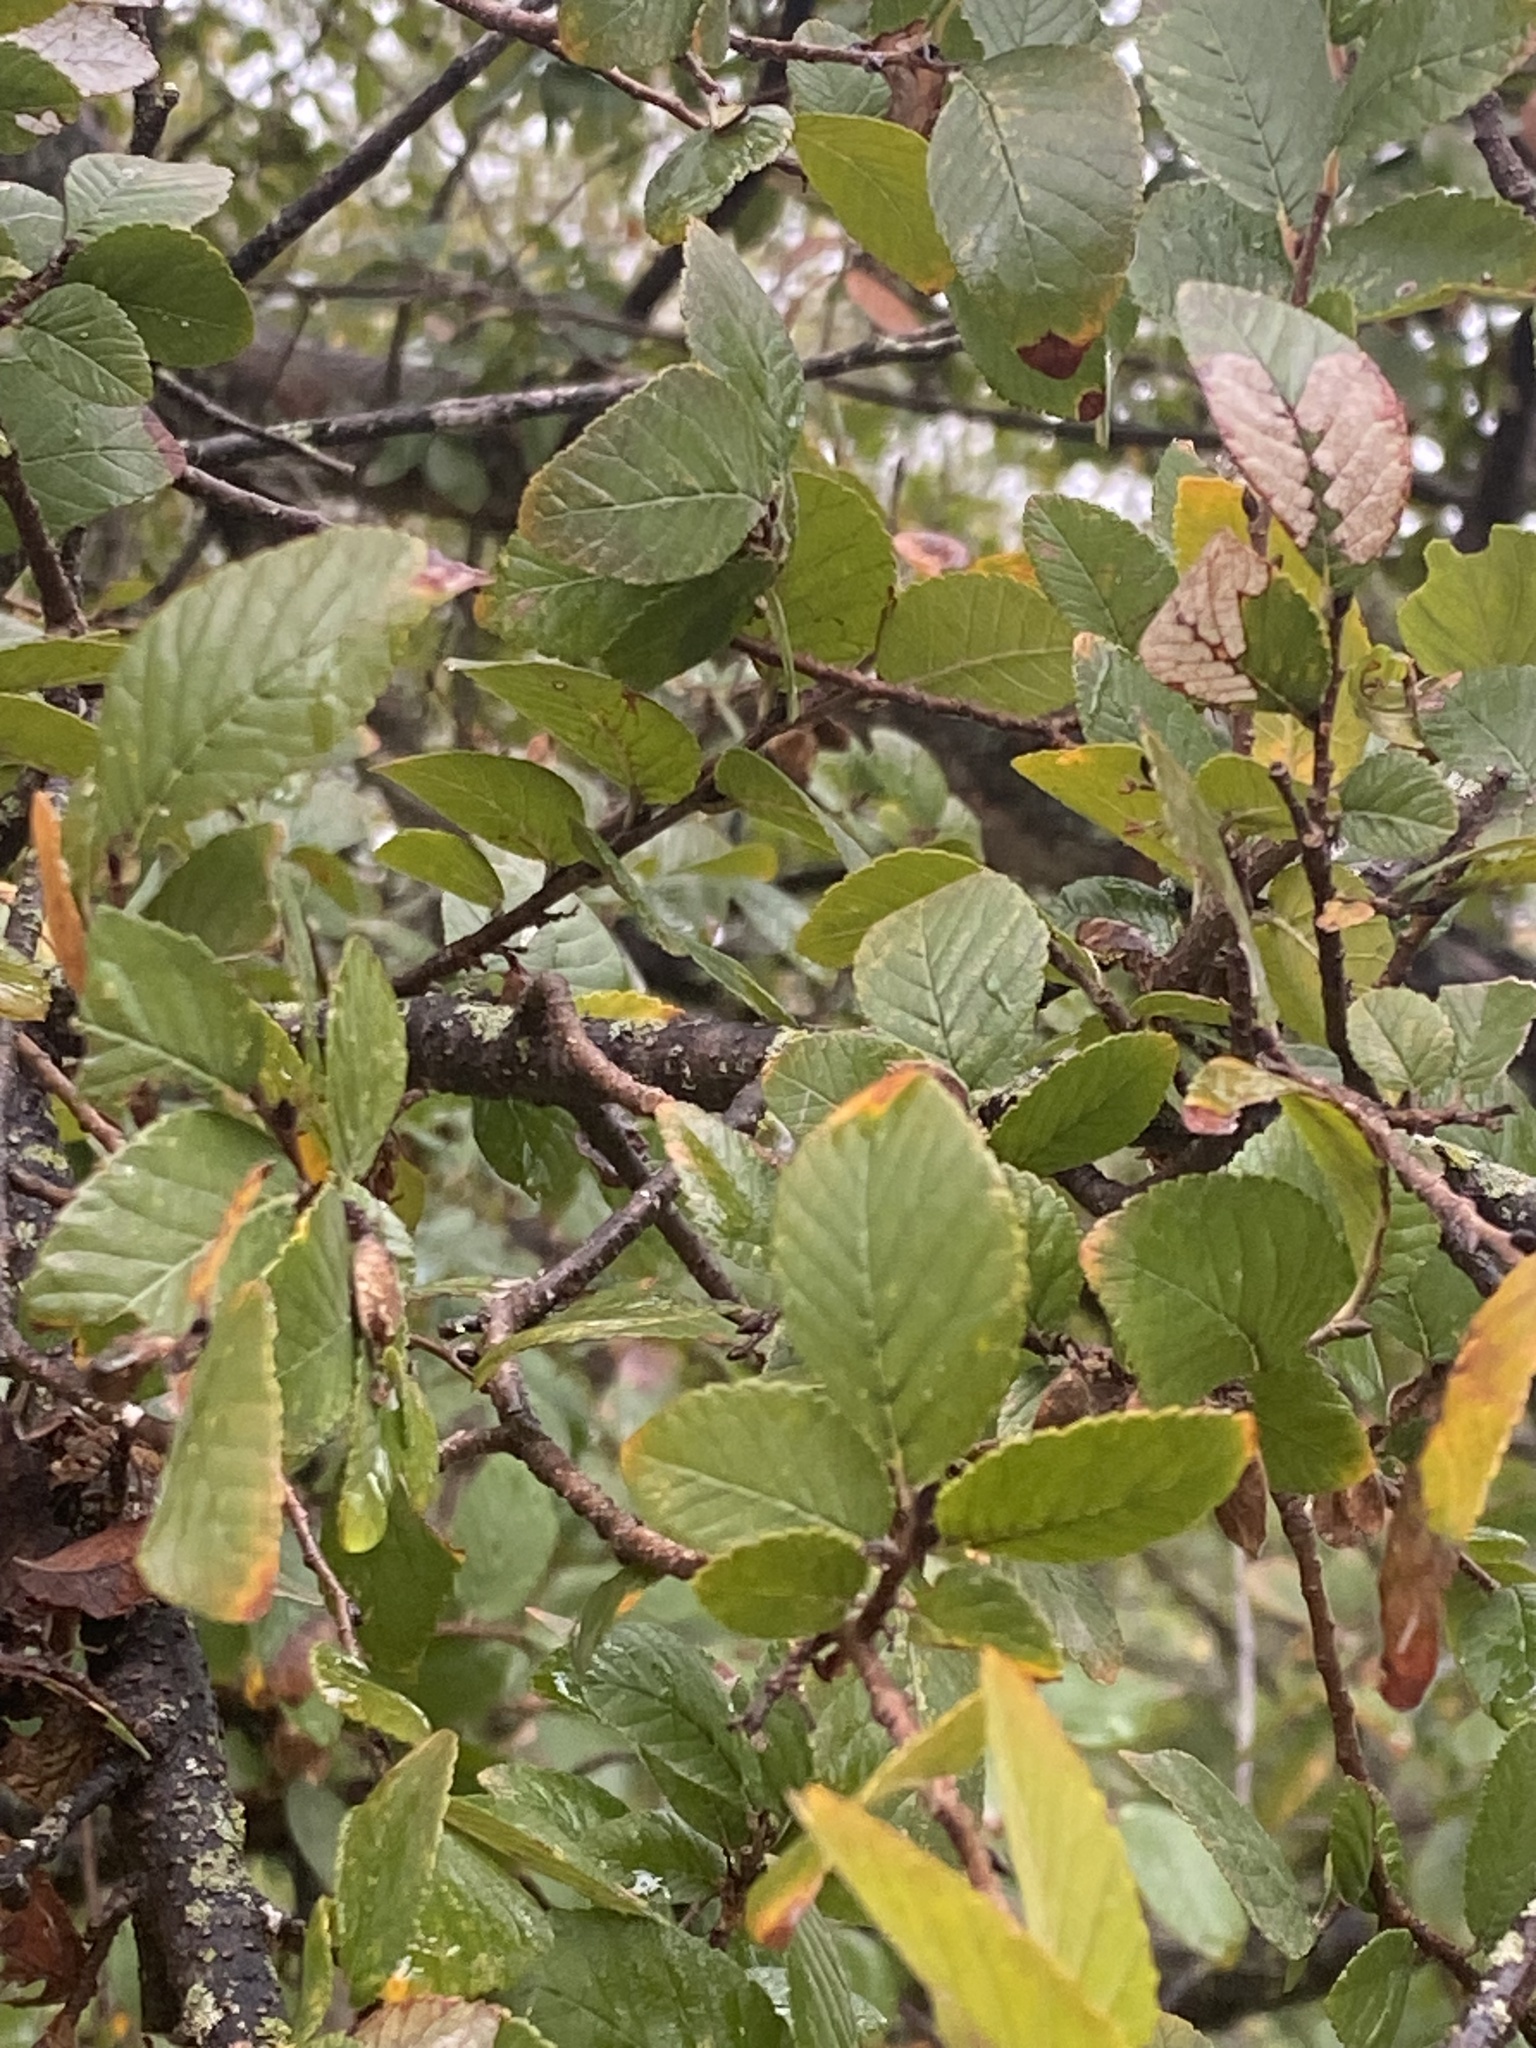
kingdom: Plantae
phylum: Tracheophyta
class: Magnoliopsida
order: Rosales
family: Ulmaceae
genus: Ulmus
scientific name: Ulmus crassifolia
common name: Basket elm
